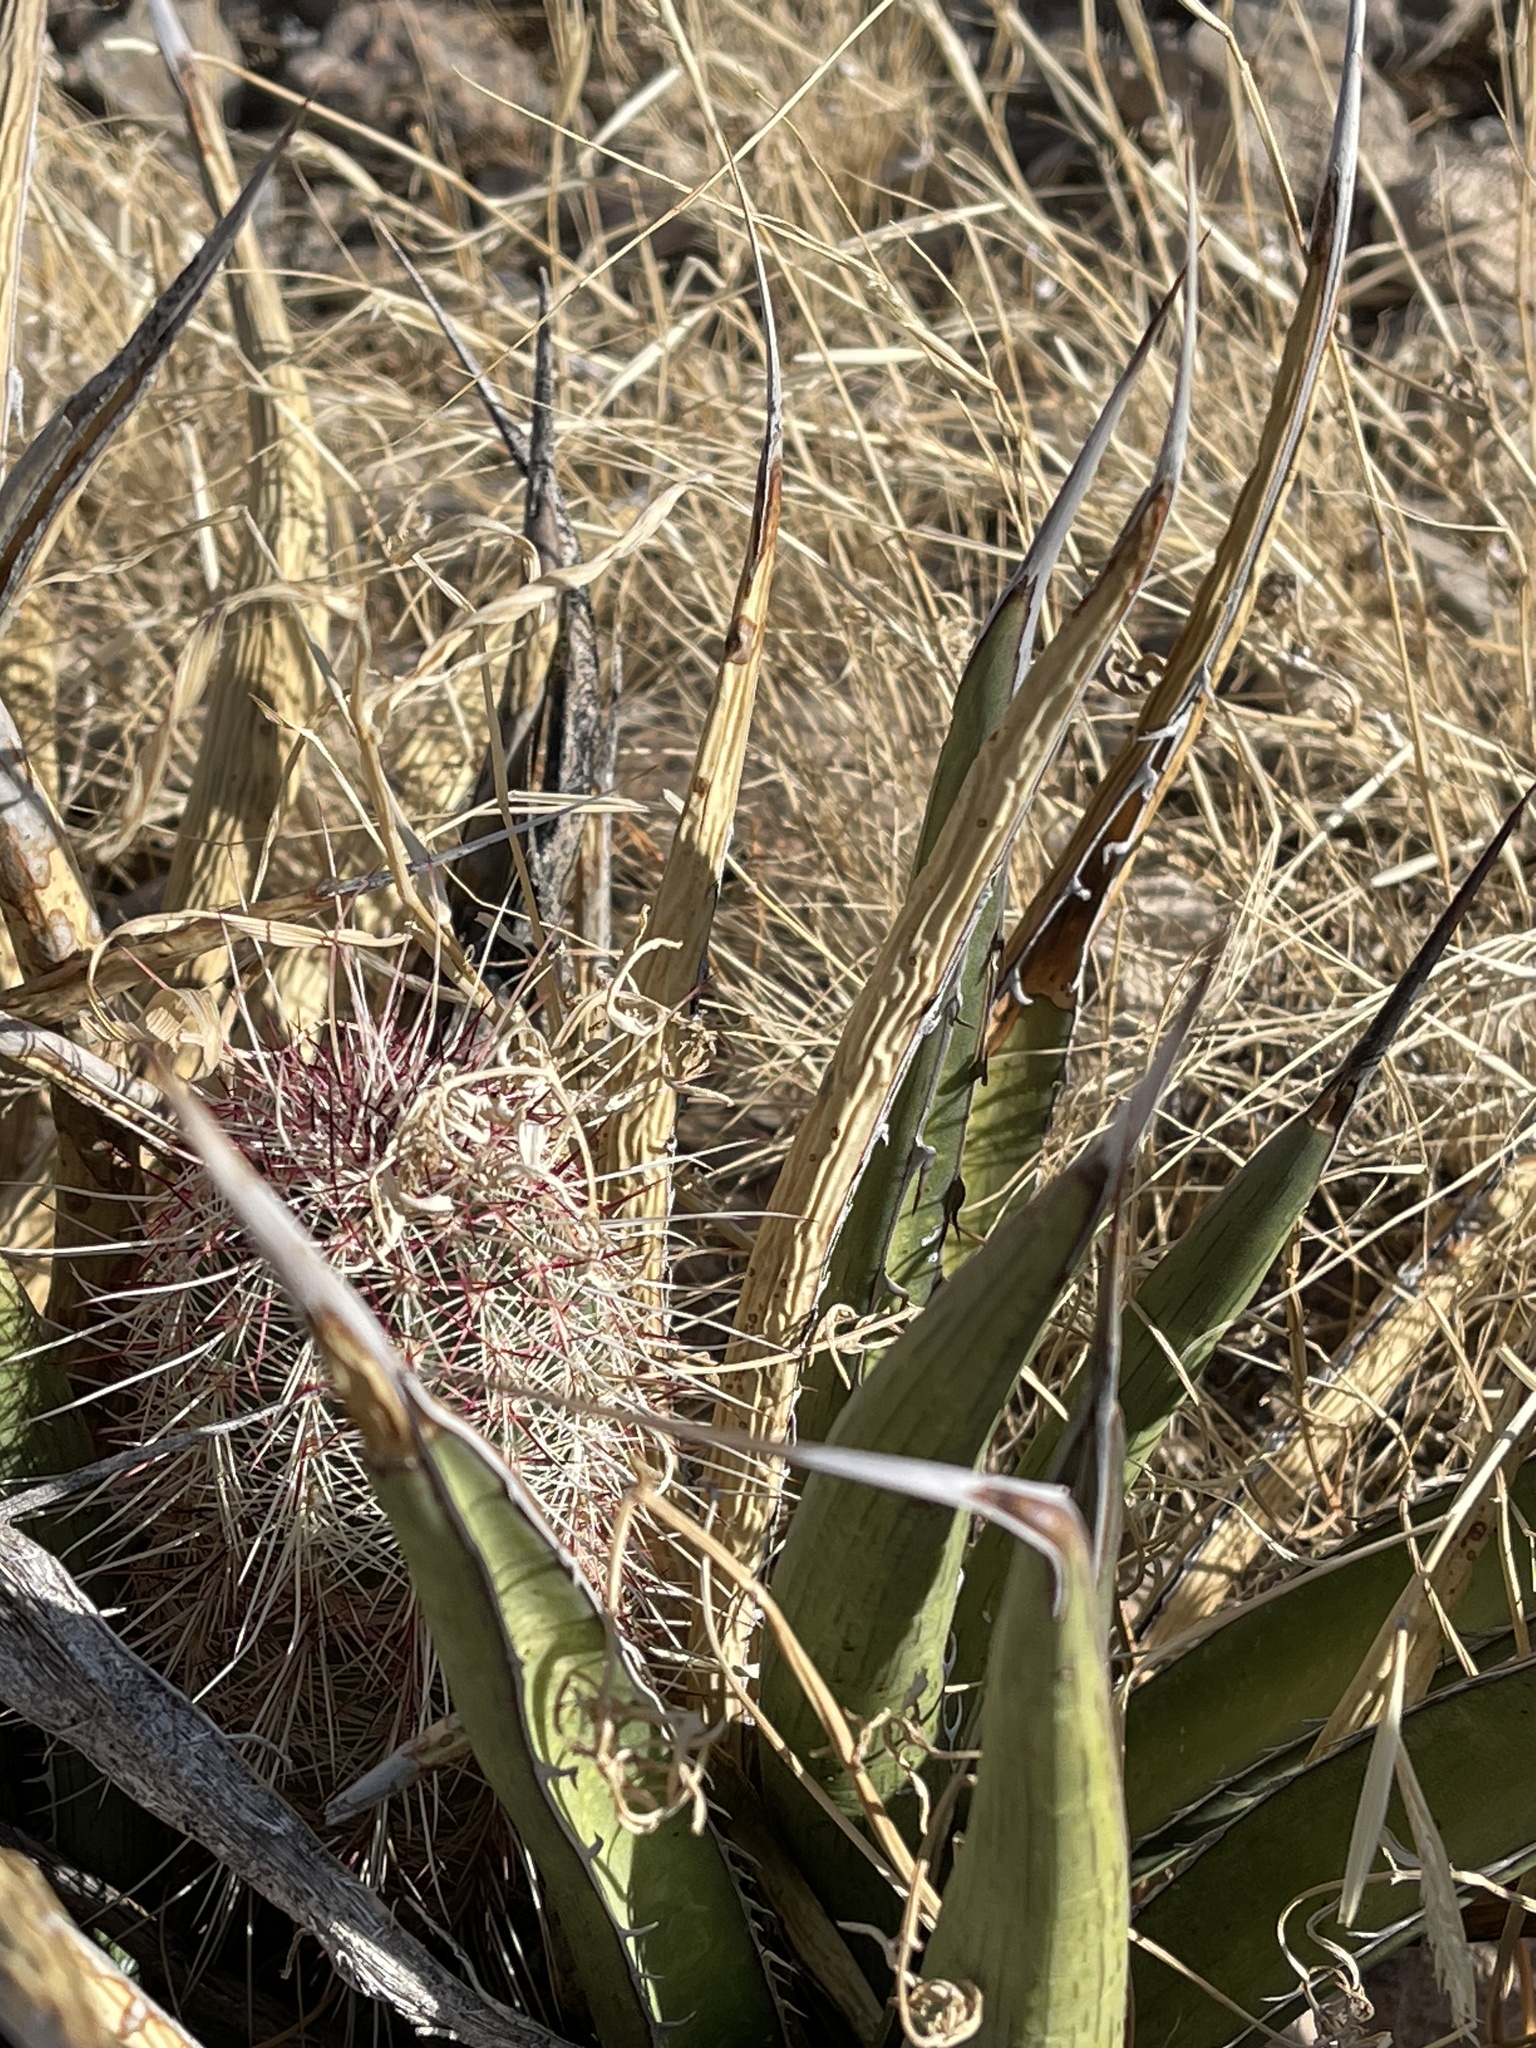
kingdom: Plantae
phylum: Tracheophyta
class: Magnoliopsida
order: Caryophyllales
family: Cactaceae
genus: Echinocereus
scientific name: Echinocereus viridiflorus
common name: Nylon hedgehog cactus
